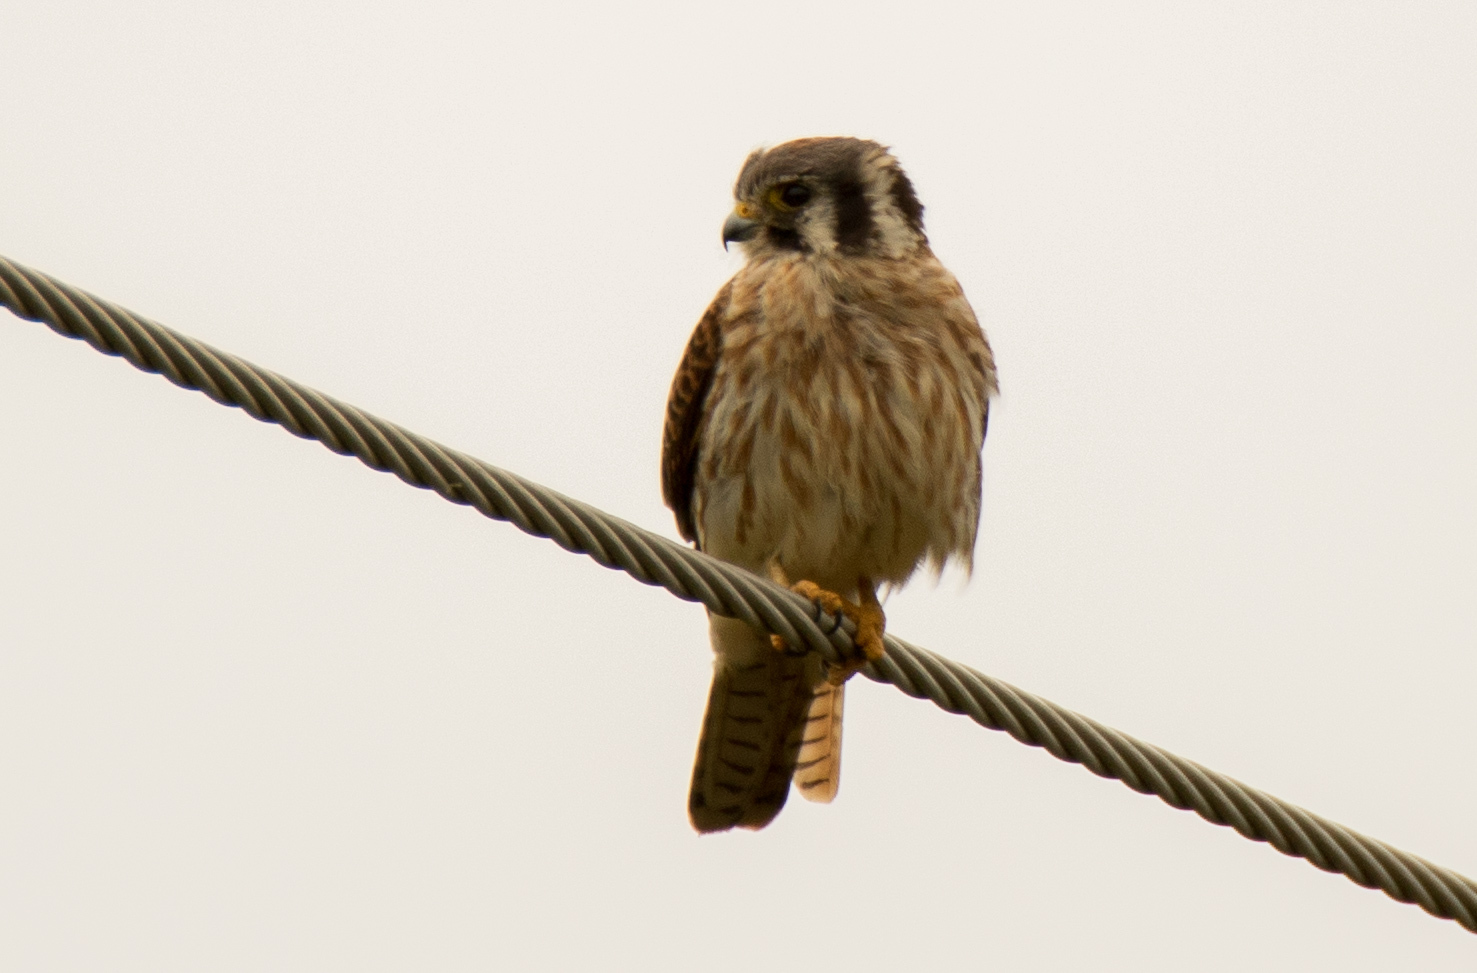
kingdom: Animalia
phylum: Chordata
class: Aves
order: Falconiformes
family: Falconidae
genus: Falco
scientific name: Falco sparverius
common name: American kestrel
